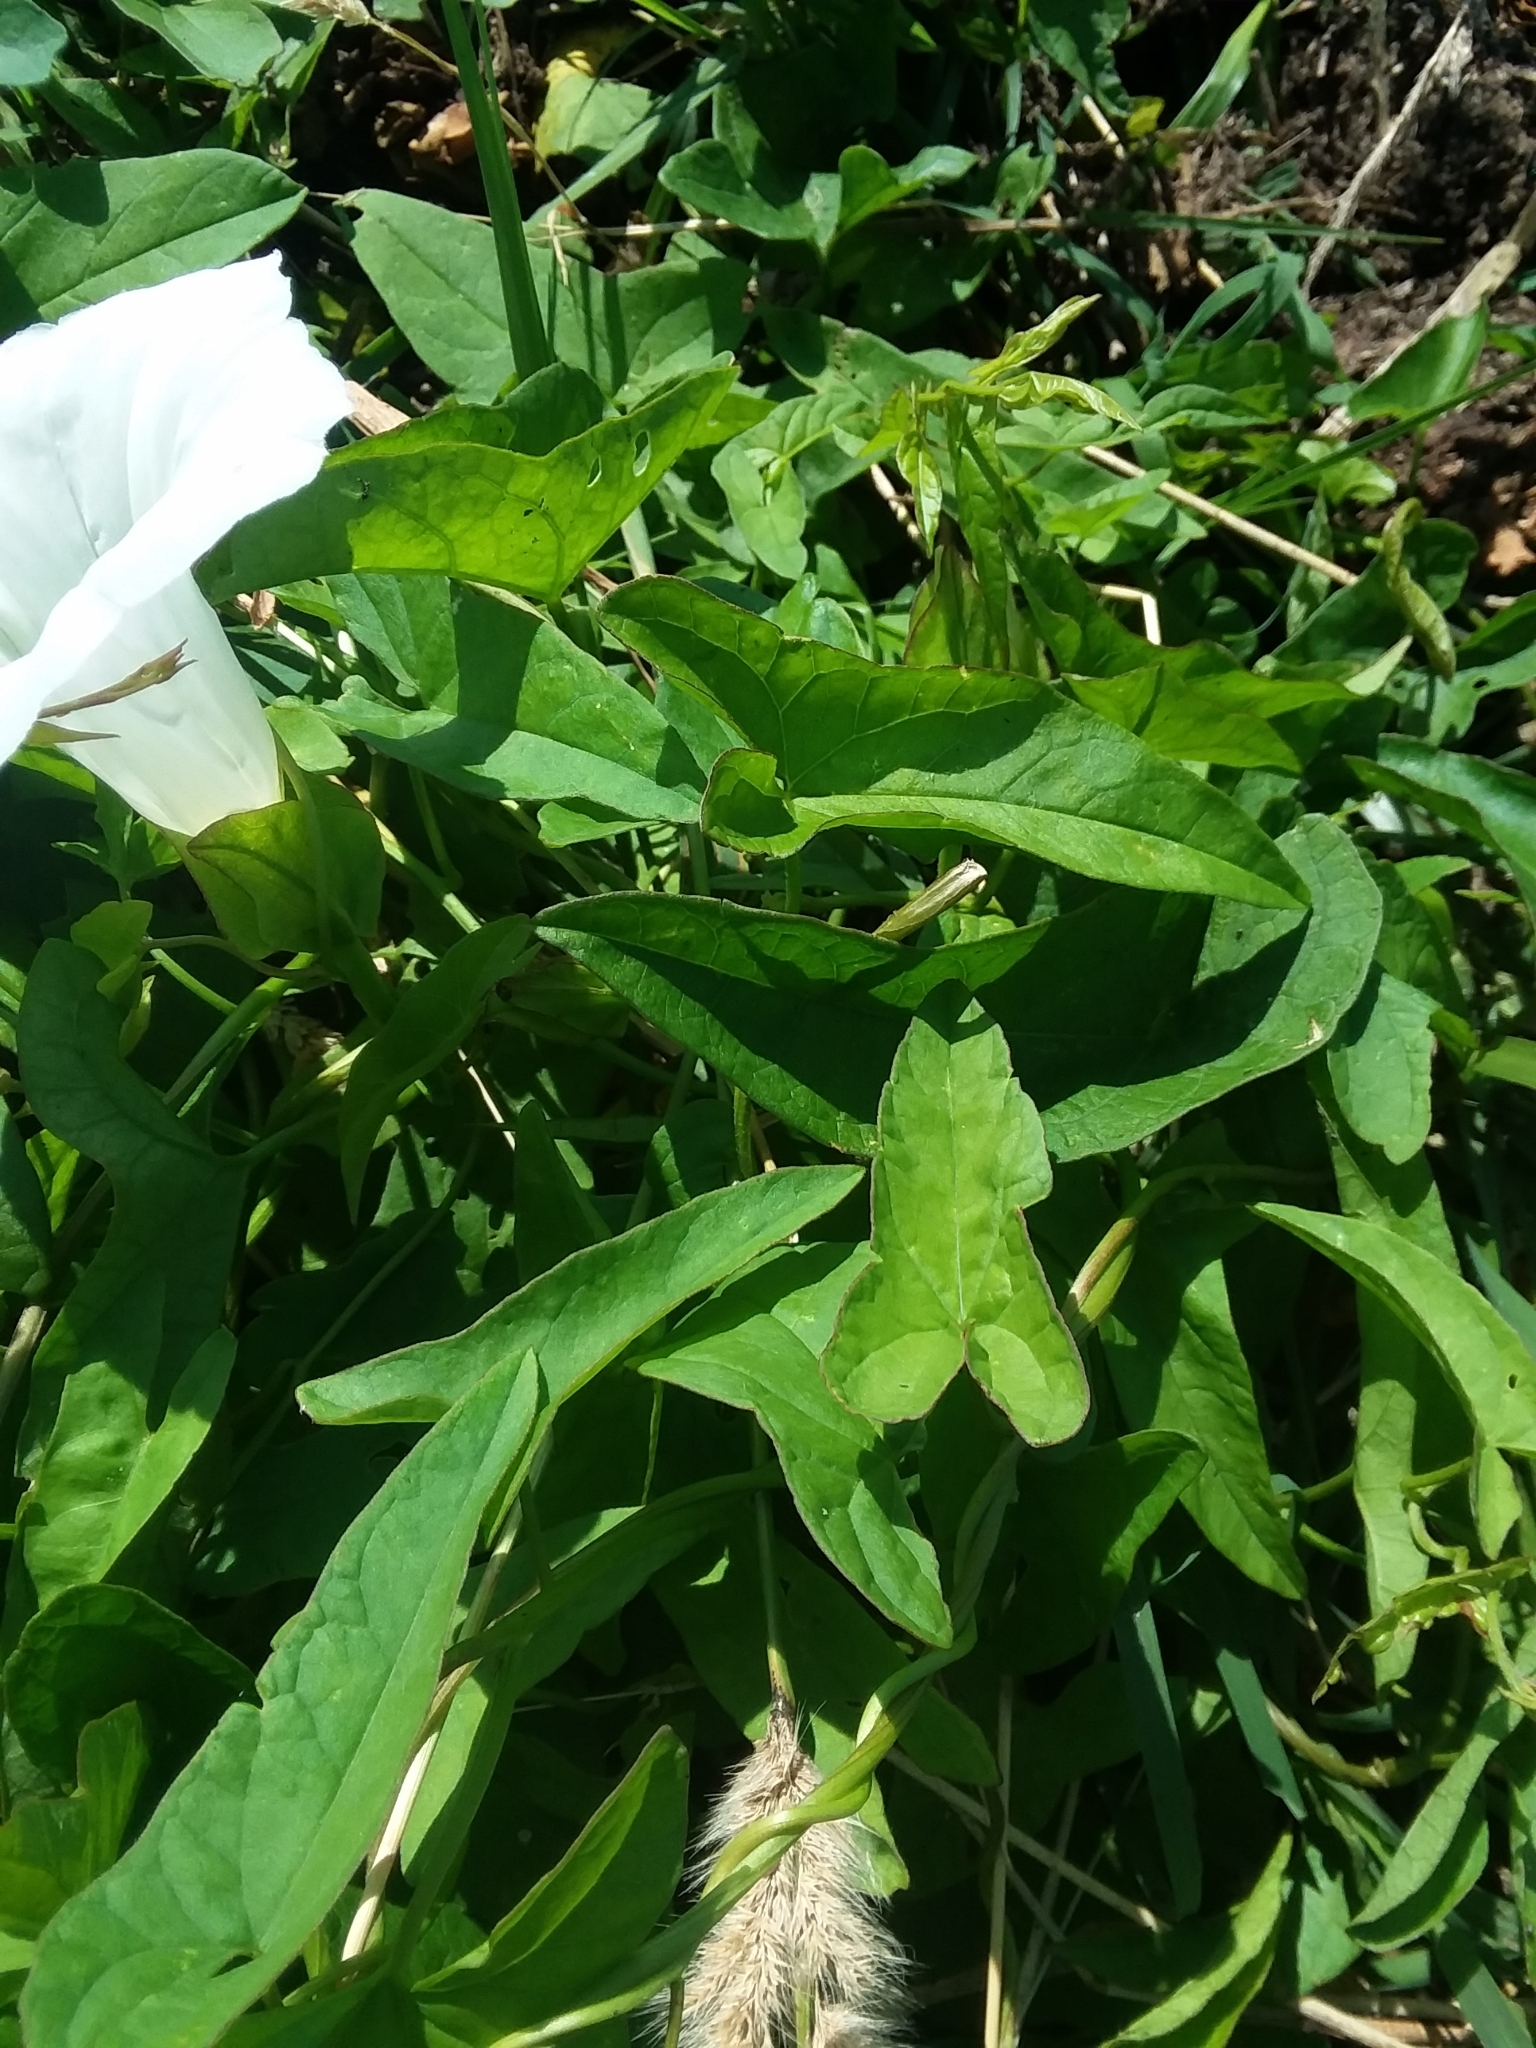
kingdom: Plantae
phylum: Tracheophyta
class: Magnoliopsida
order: Solanales
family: Convolvulaceae
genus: Calystegia
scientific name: Calystegia sepium
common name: Hedge bindweed
